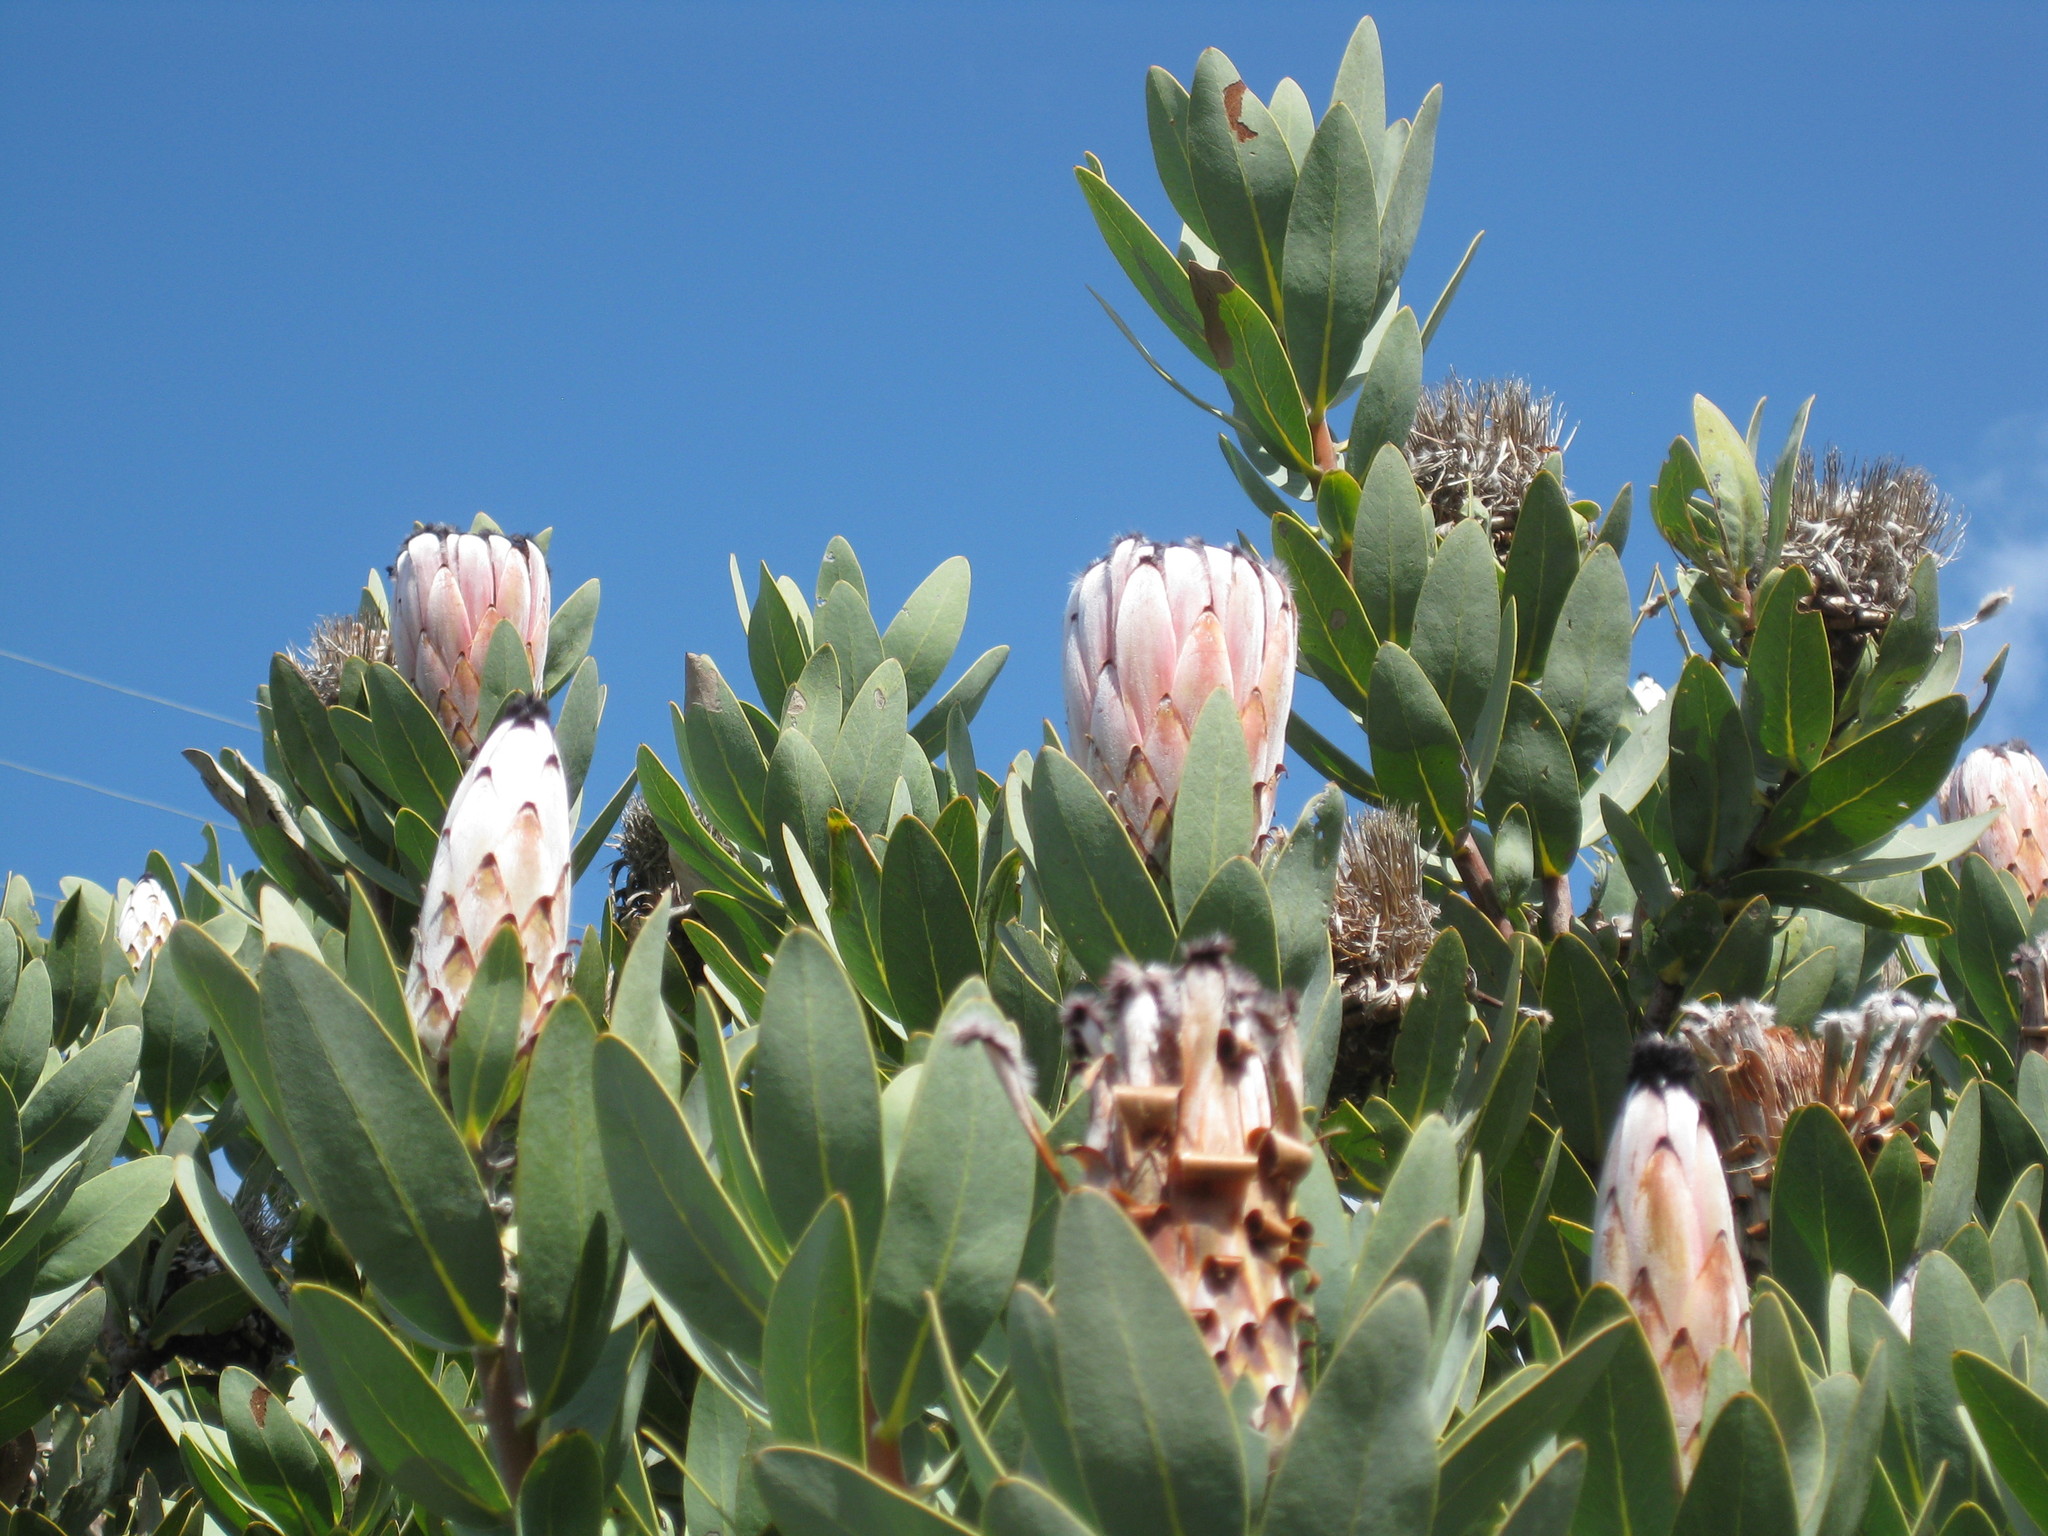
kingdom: Plantae
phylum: Tracheophyta
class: Magnoliopsida
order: Proteales
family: Proteaceae
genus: Protea
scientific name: Protea laurifolia
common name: Grey-leaf sugarbsh
